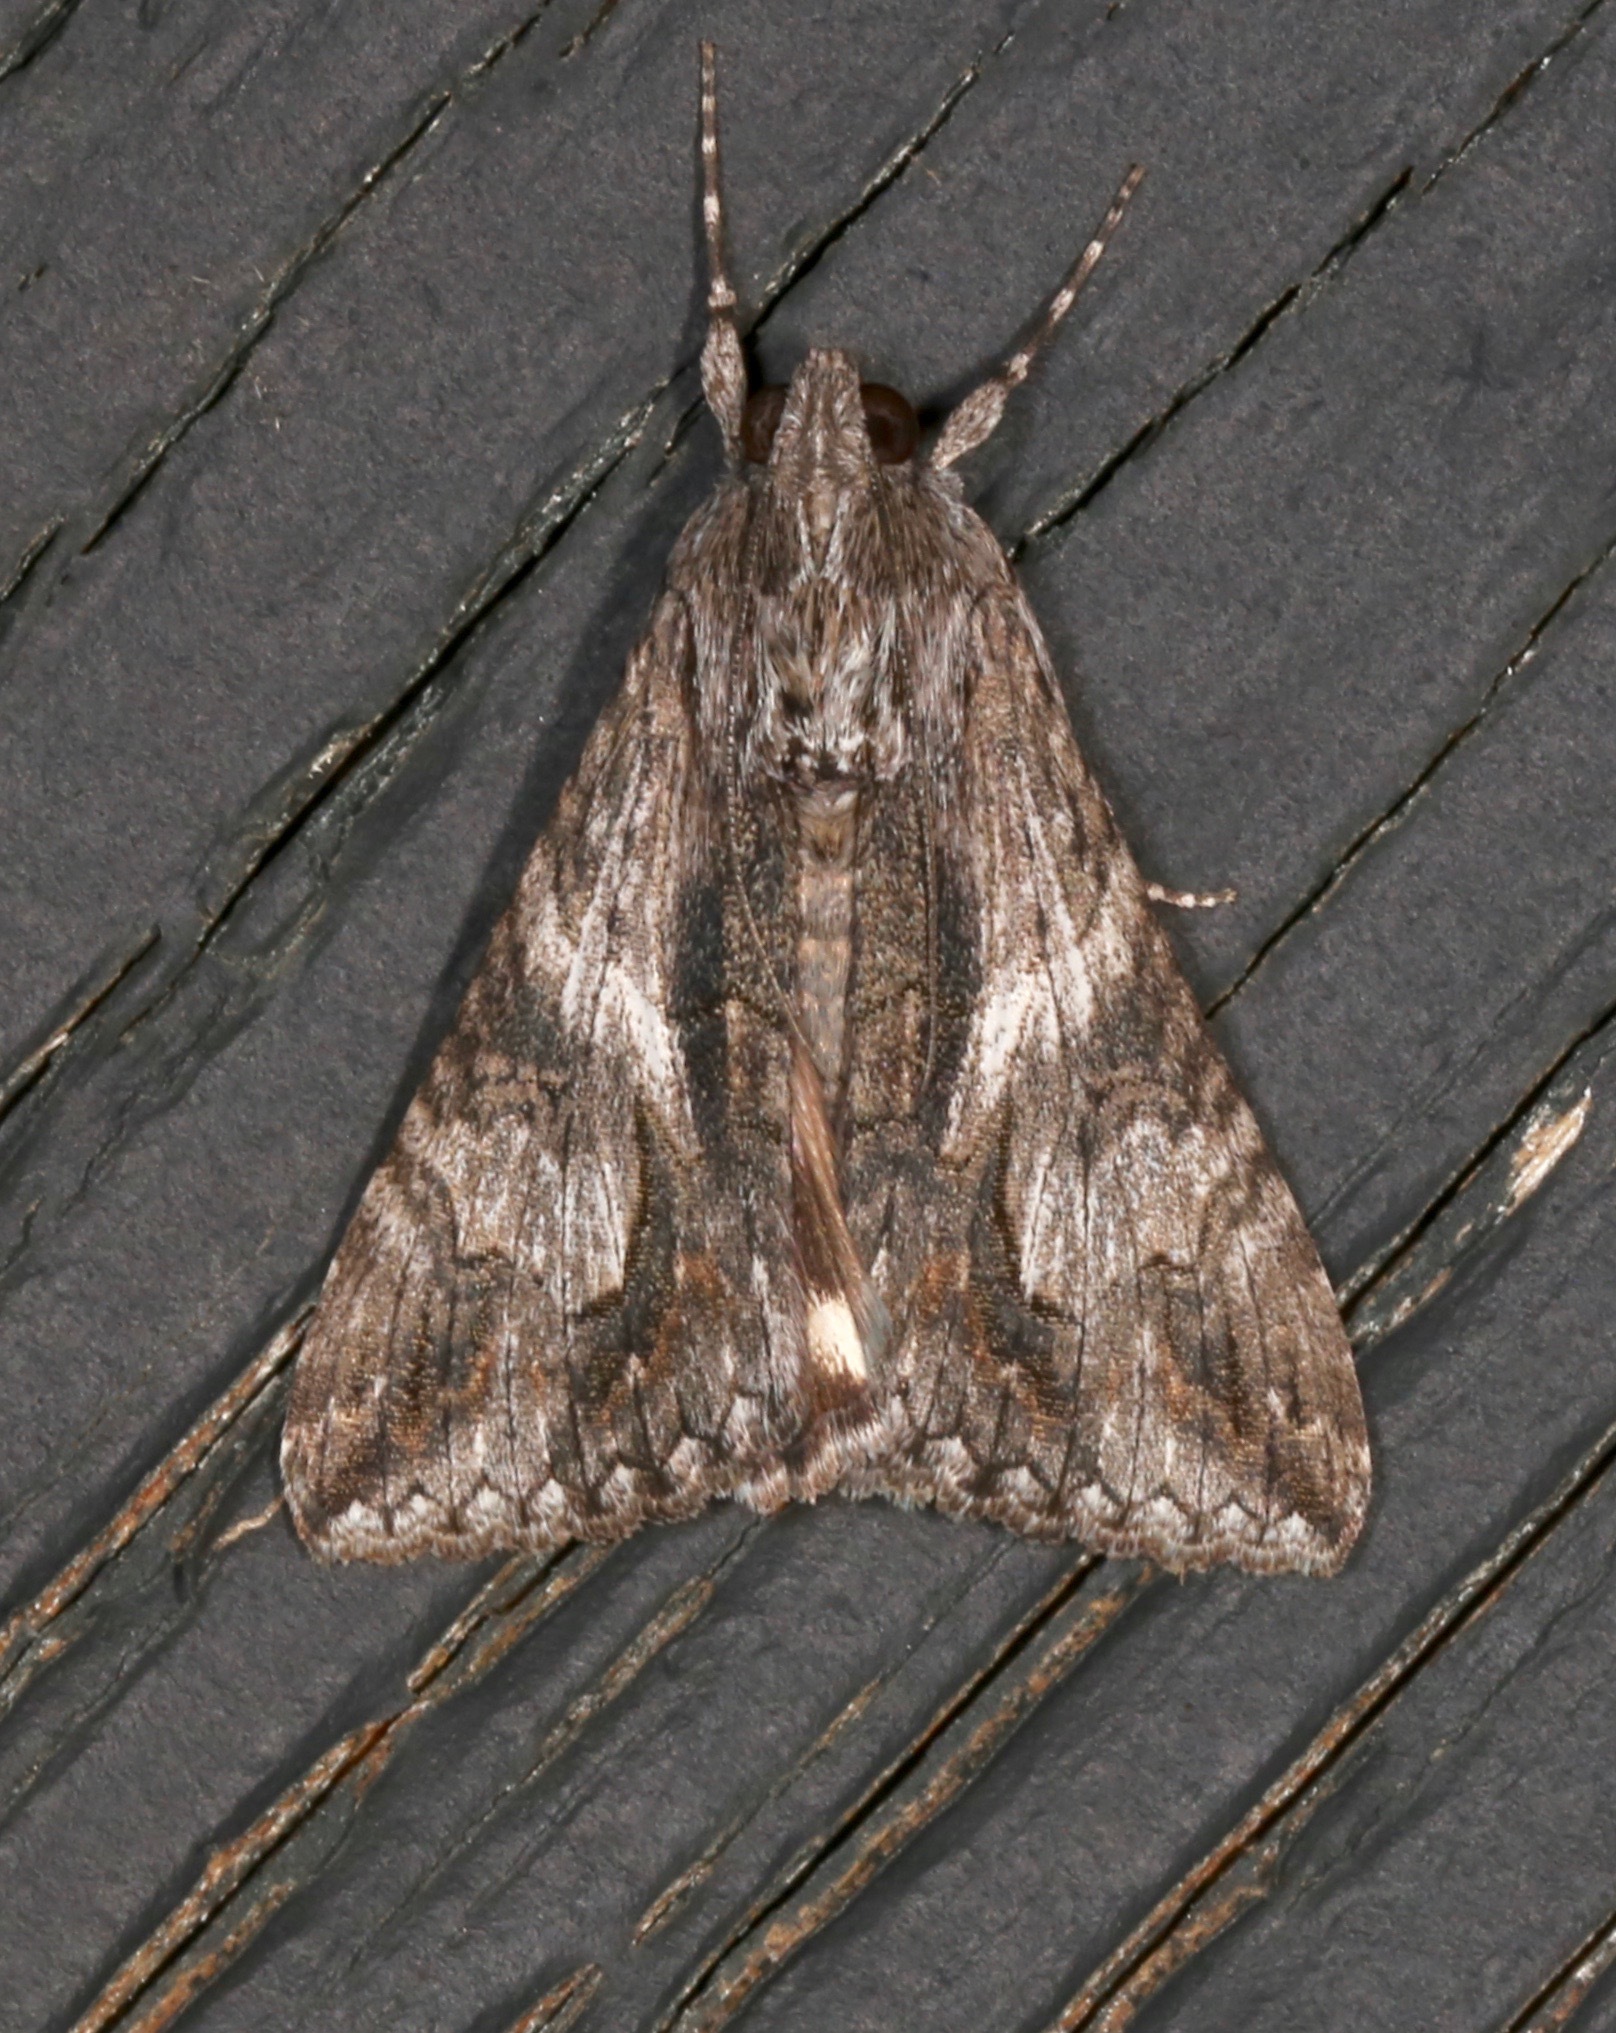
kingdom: Animalia
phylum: Arthropoda
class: Insecta
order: Lepidoptera
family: Erebidae
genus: Melipotis
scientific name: Melipotis jucunda
